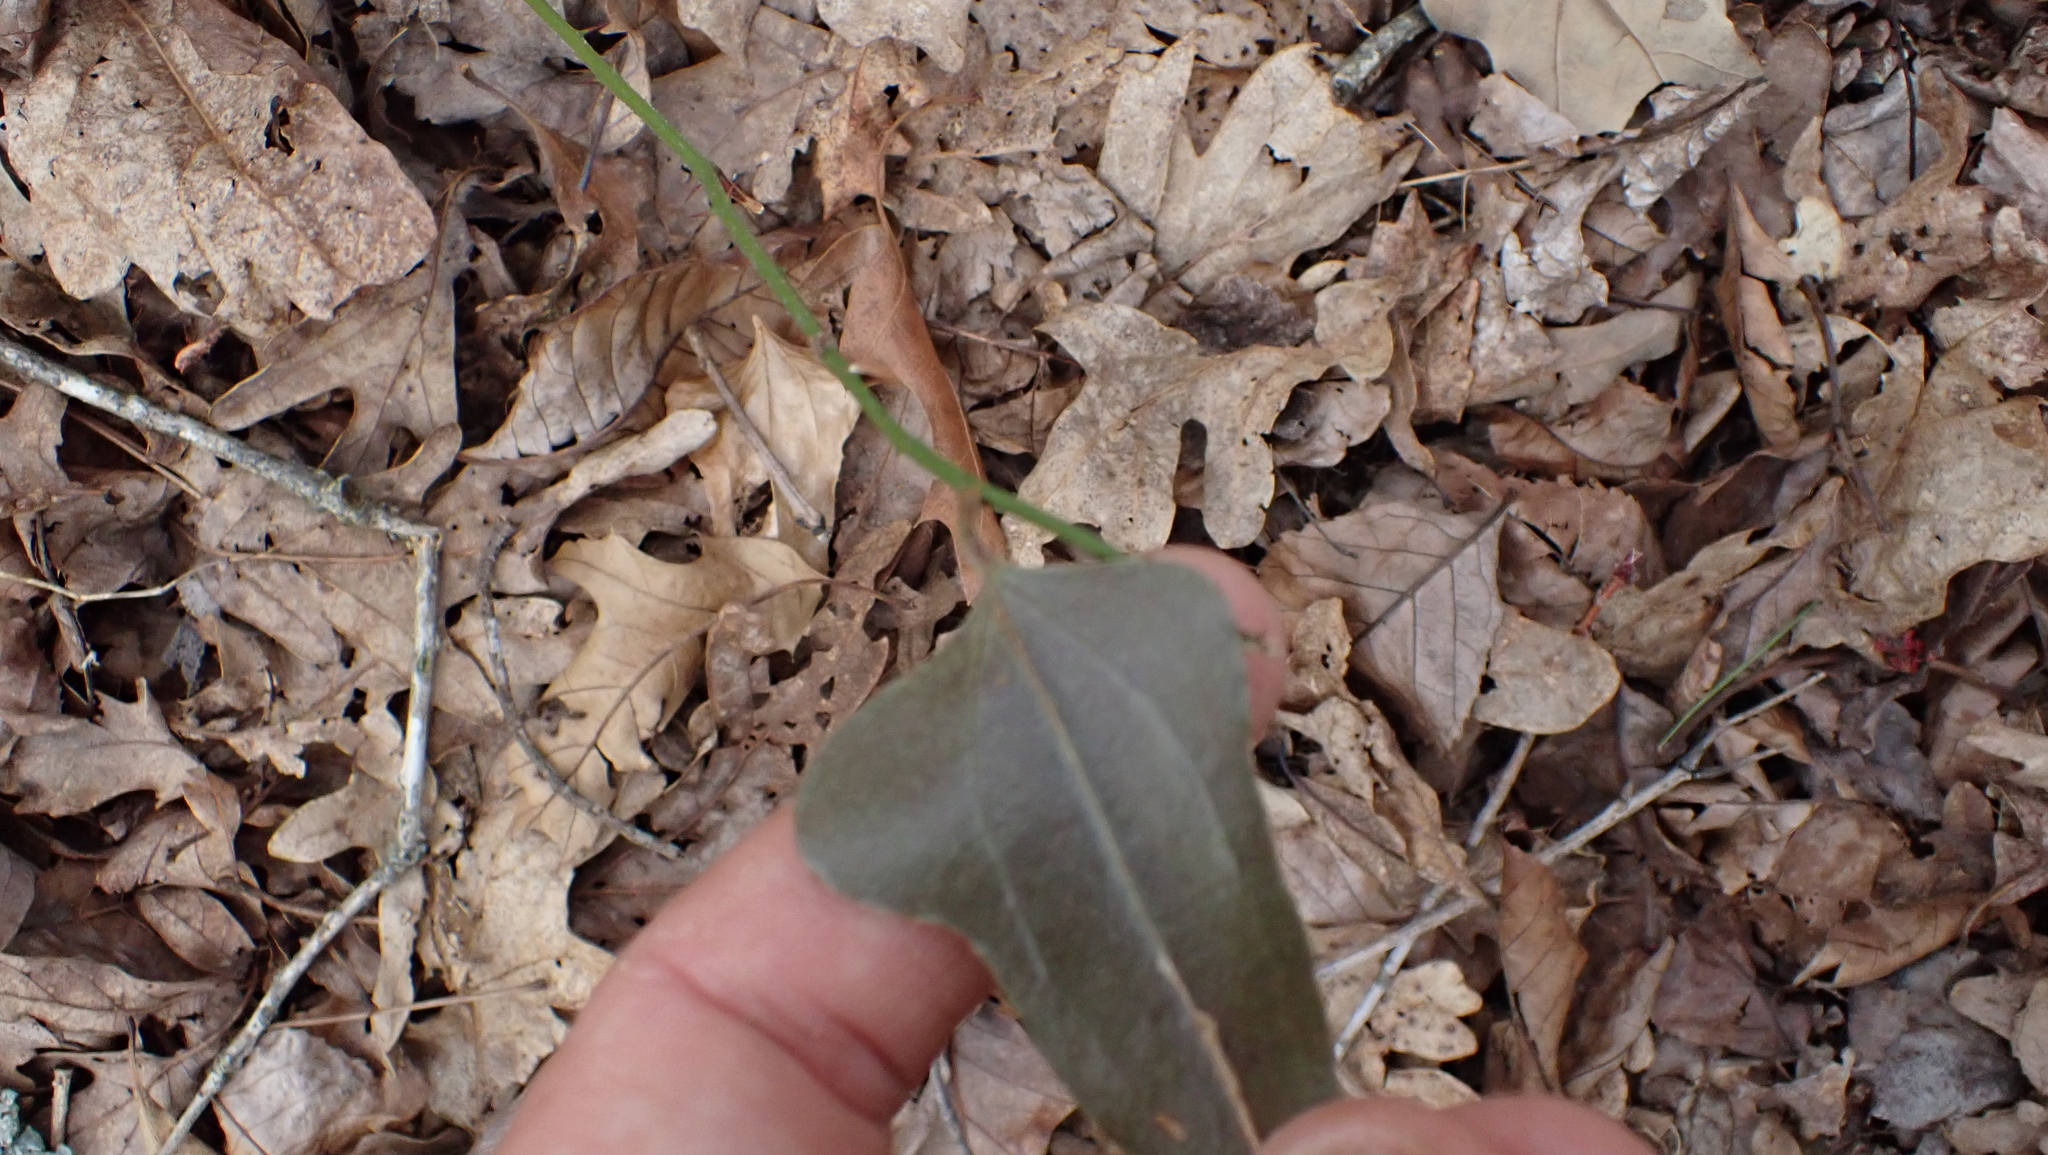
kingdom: Plantae
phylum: Tracheophyta
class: Liliopsida
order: Liliales
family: Smilacaceae
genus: Smilax
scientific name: Smilax bona-nox
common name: Catbrier
